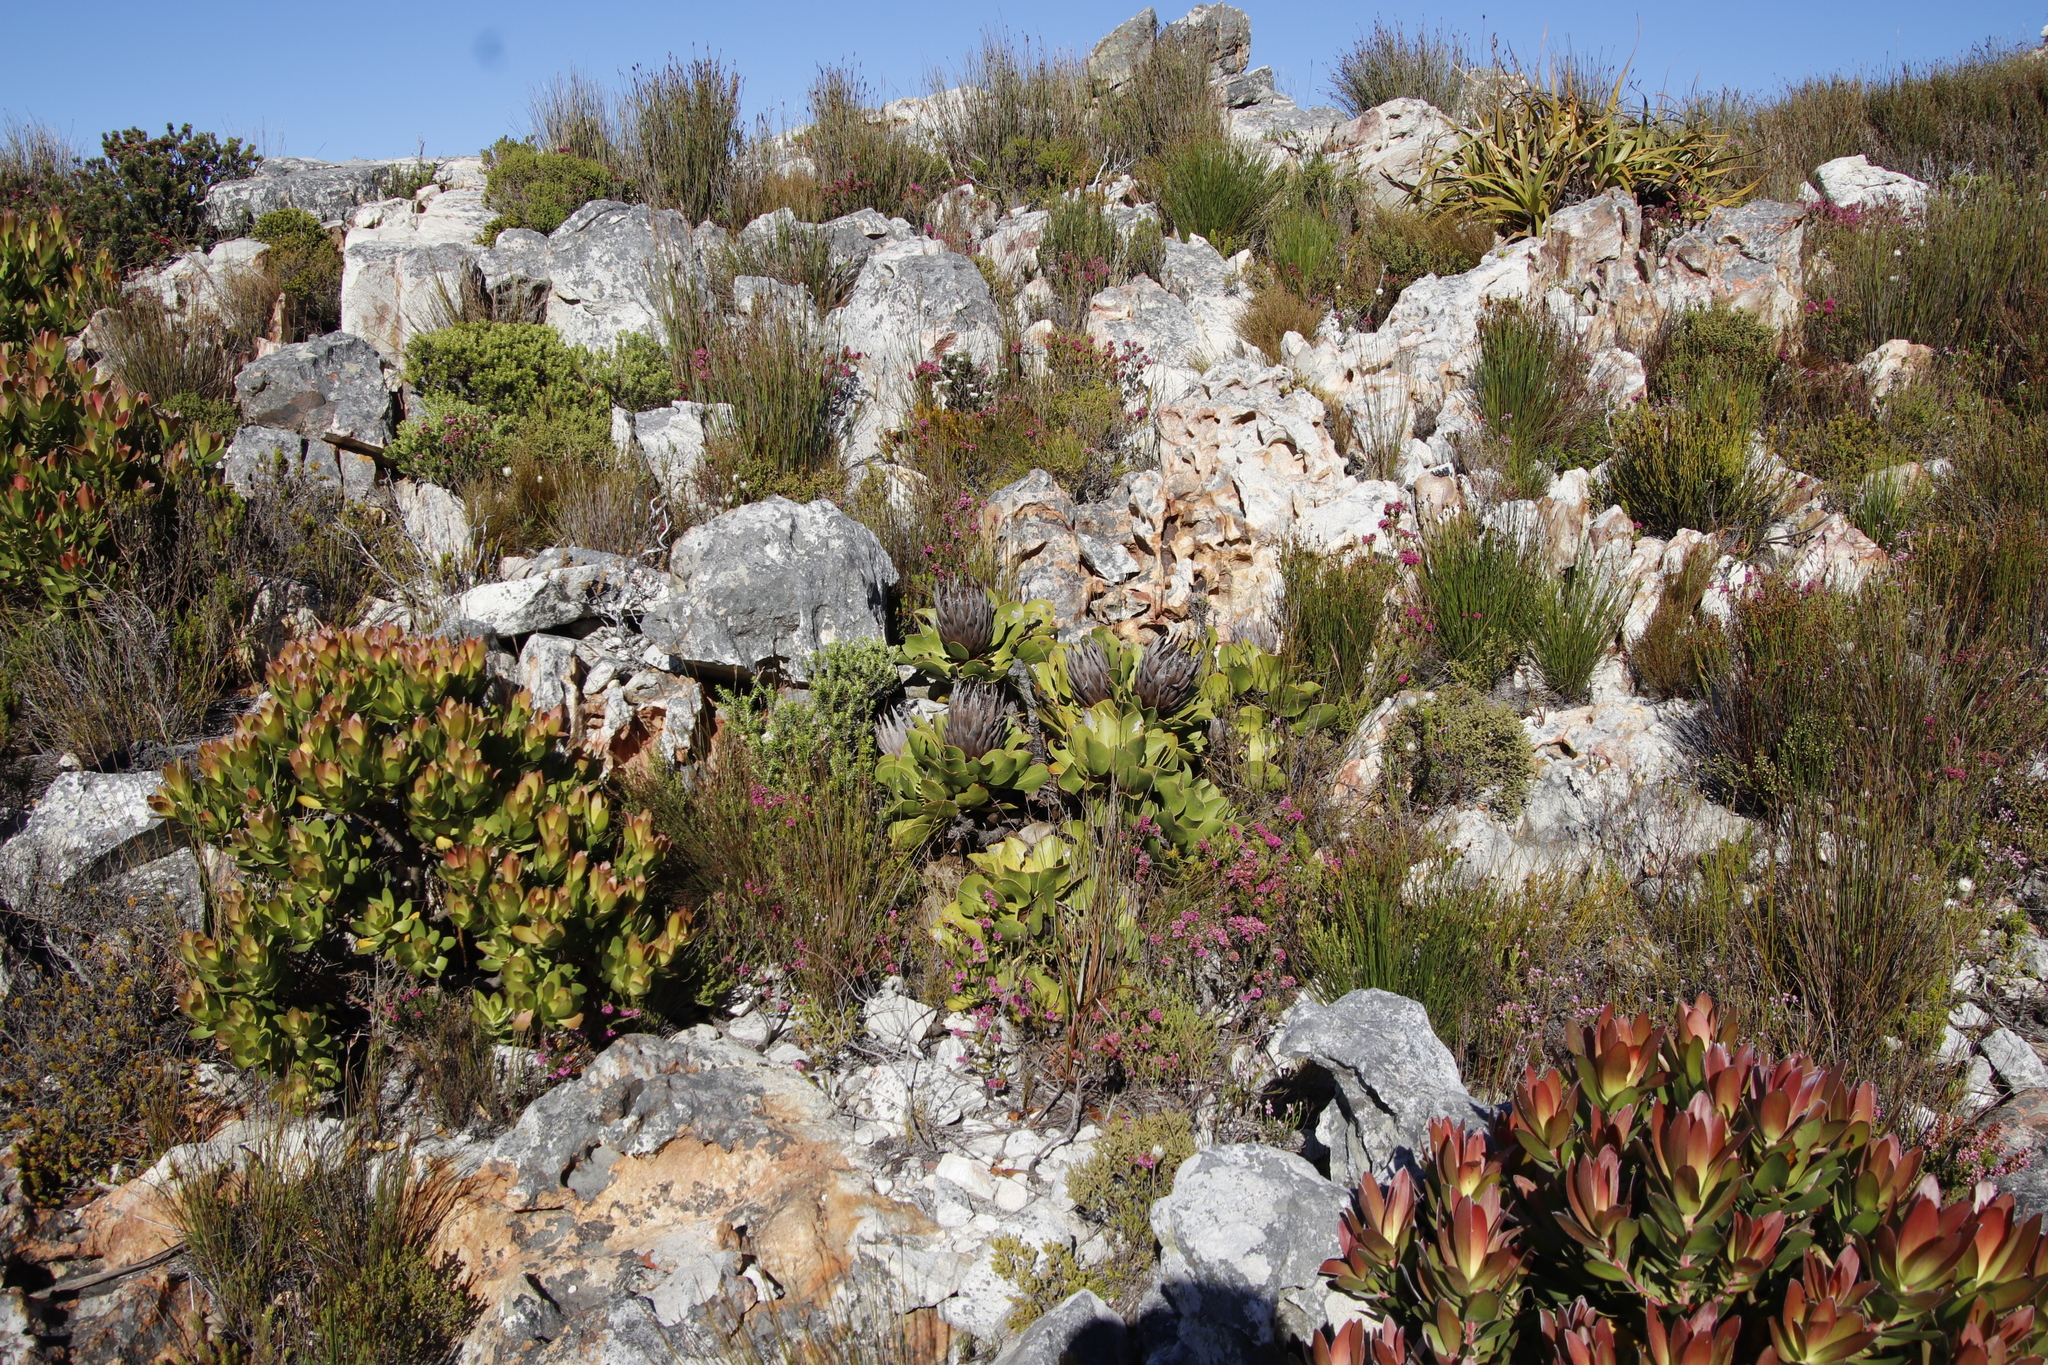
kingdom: Plantae
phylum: Tracheophyta
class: Magnoliopsida
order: Proteales
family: Proteaceae
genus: Protea
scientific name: Protea cynaroides
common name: King protea
